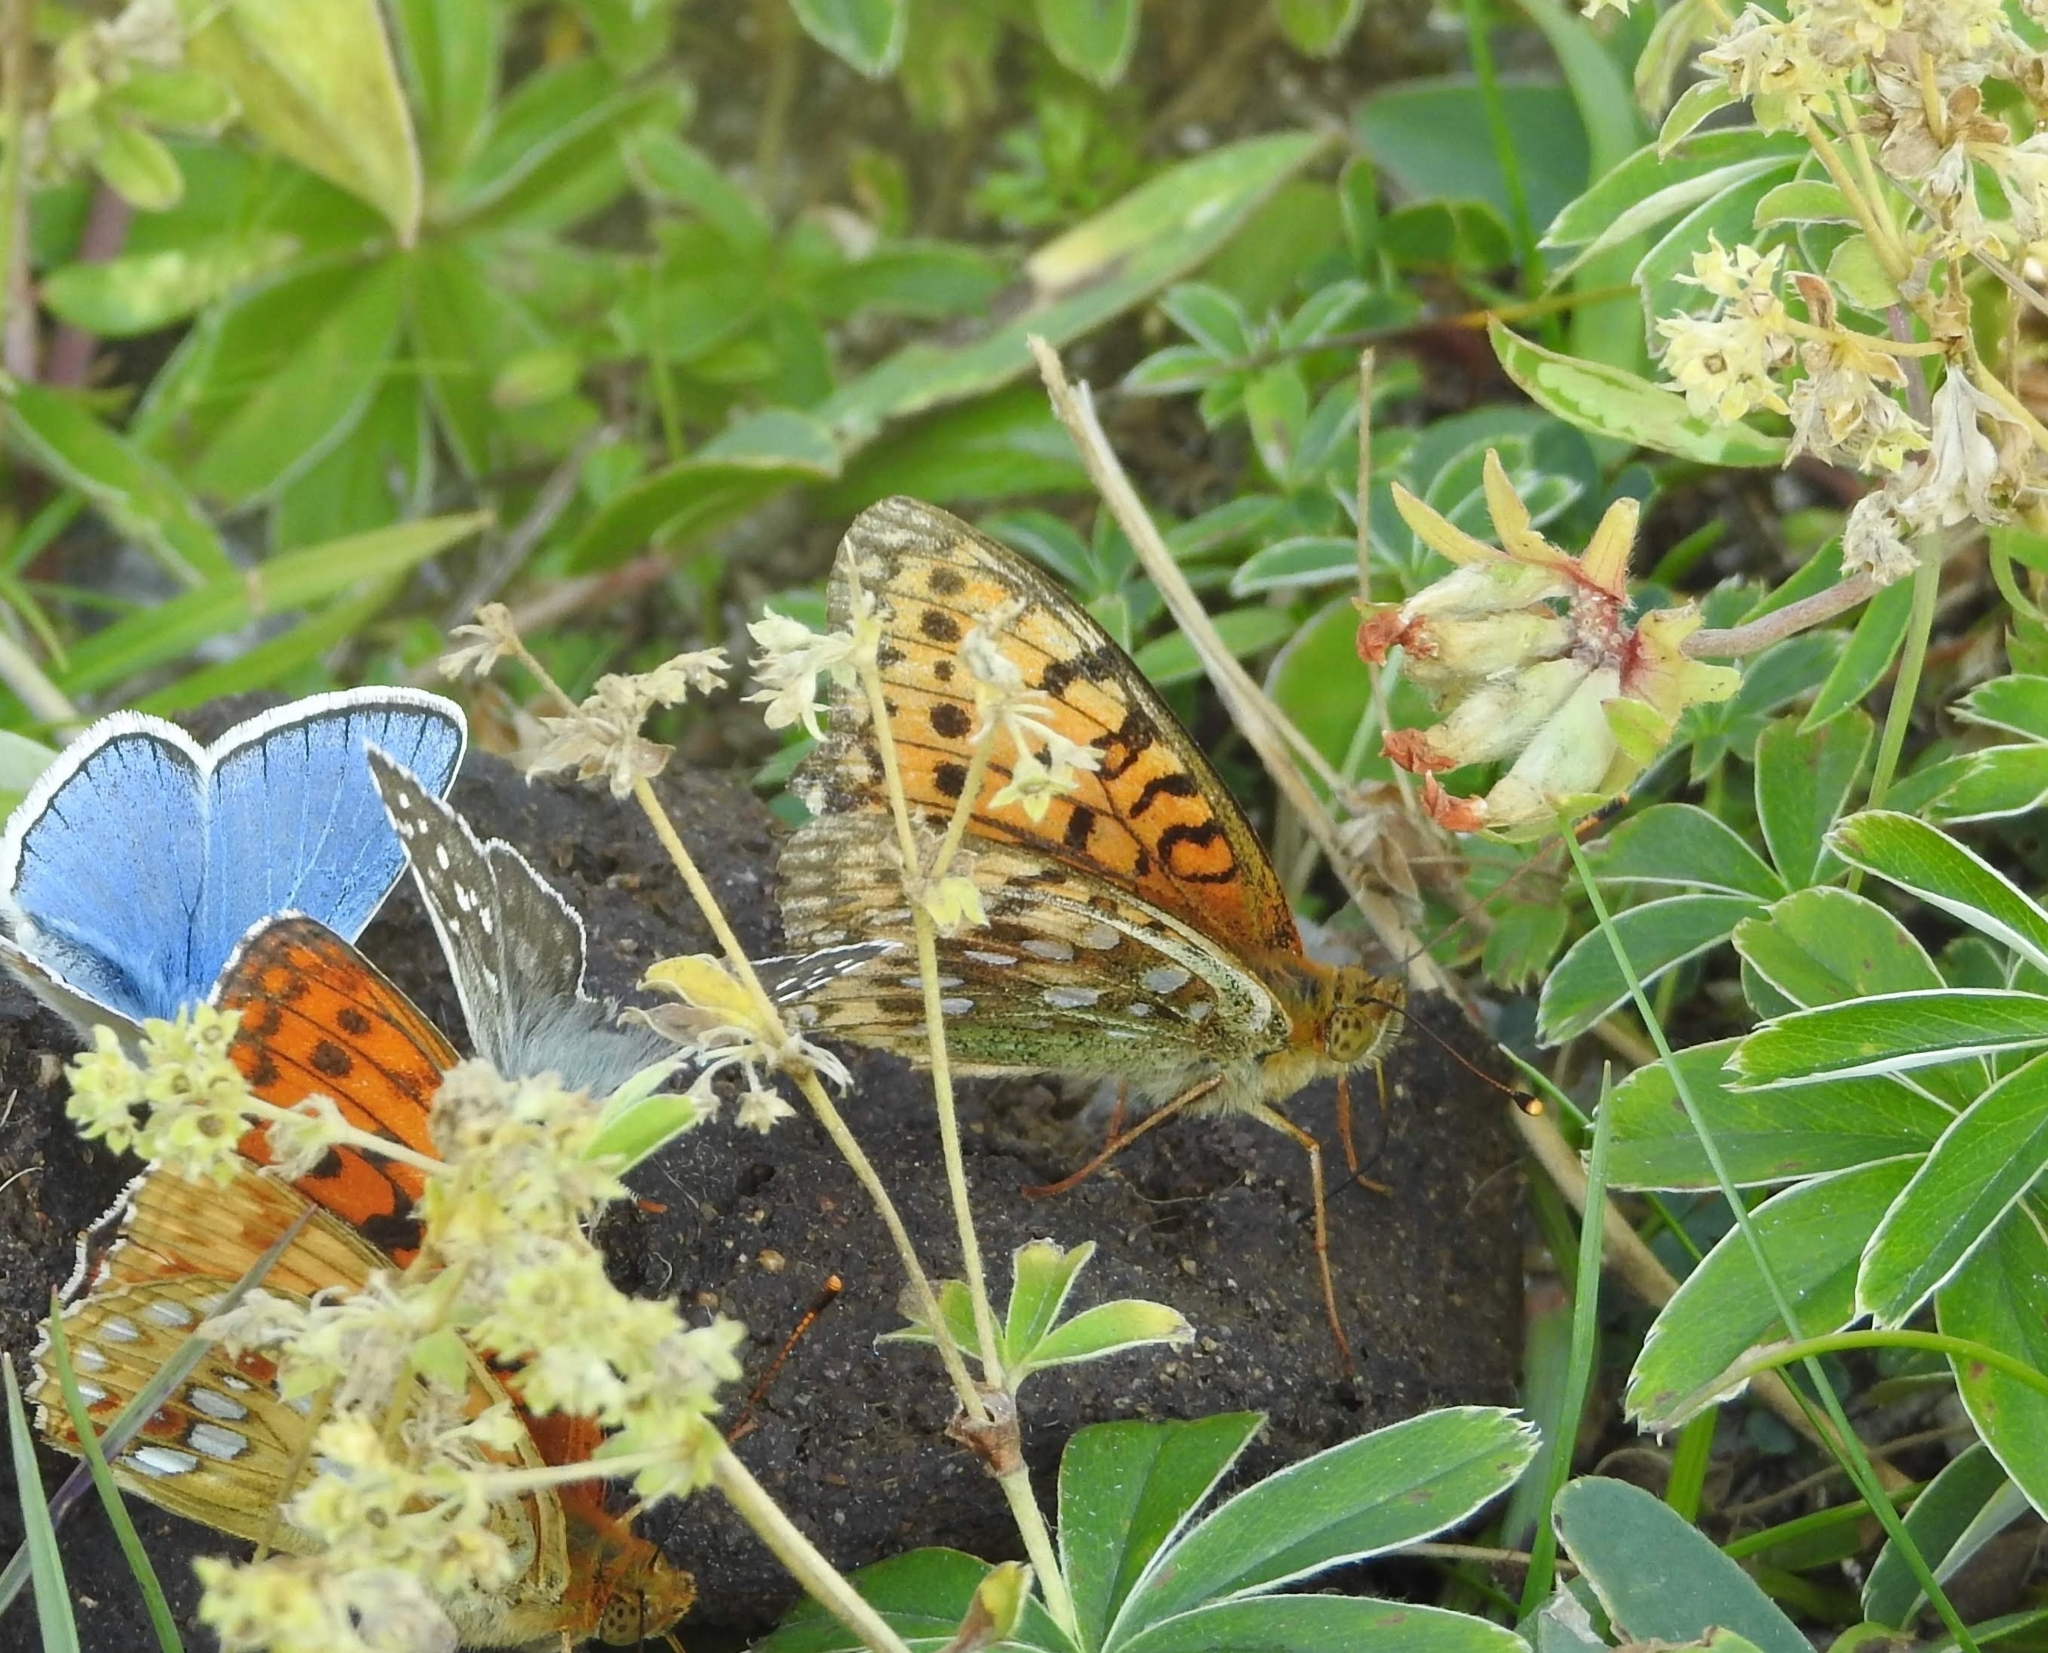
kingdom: Animalia
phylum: Arthropoda
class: Insecta
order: Lepidoptera
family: Nymphalidae
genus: Speyeria
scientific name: Speyeria aglaja
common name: Dark green fritillary
